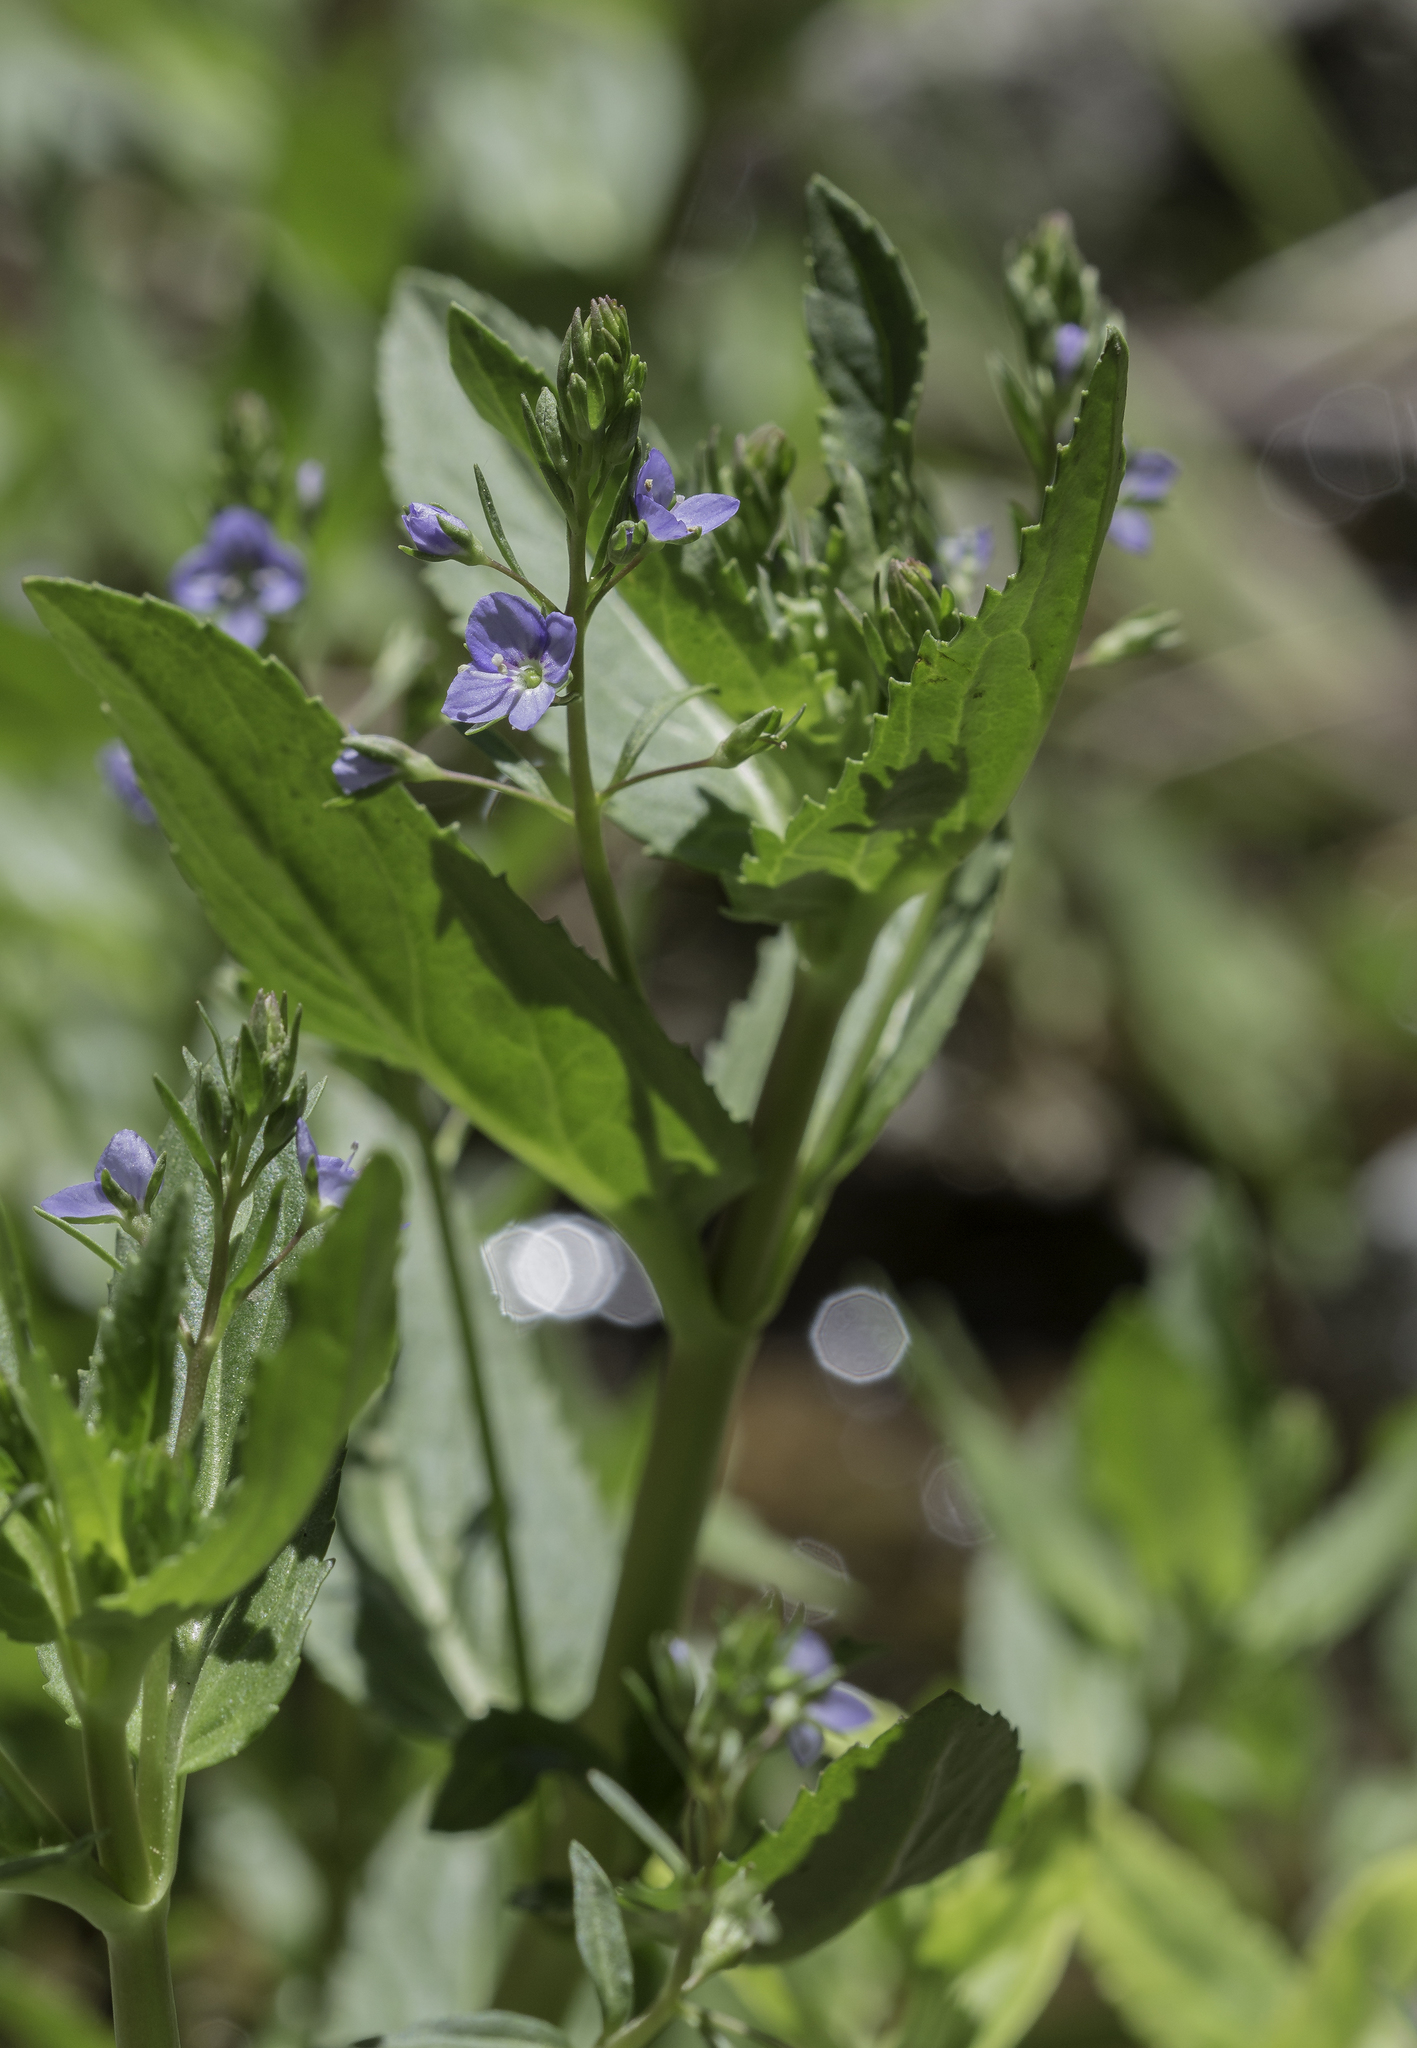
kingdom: Plantae
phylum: Tracheophyta
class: Magnoliopsida
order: Lamiales
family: Plantaginaceae
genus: Veronica
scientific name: Veronica americana
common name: American brooklime
